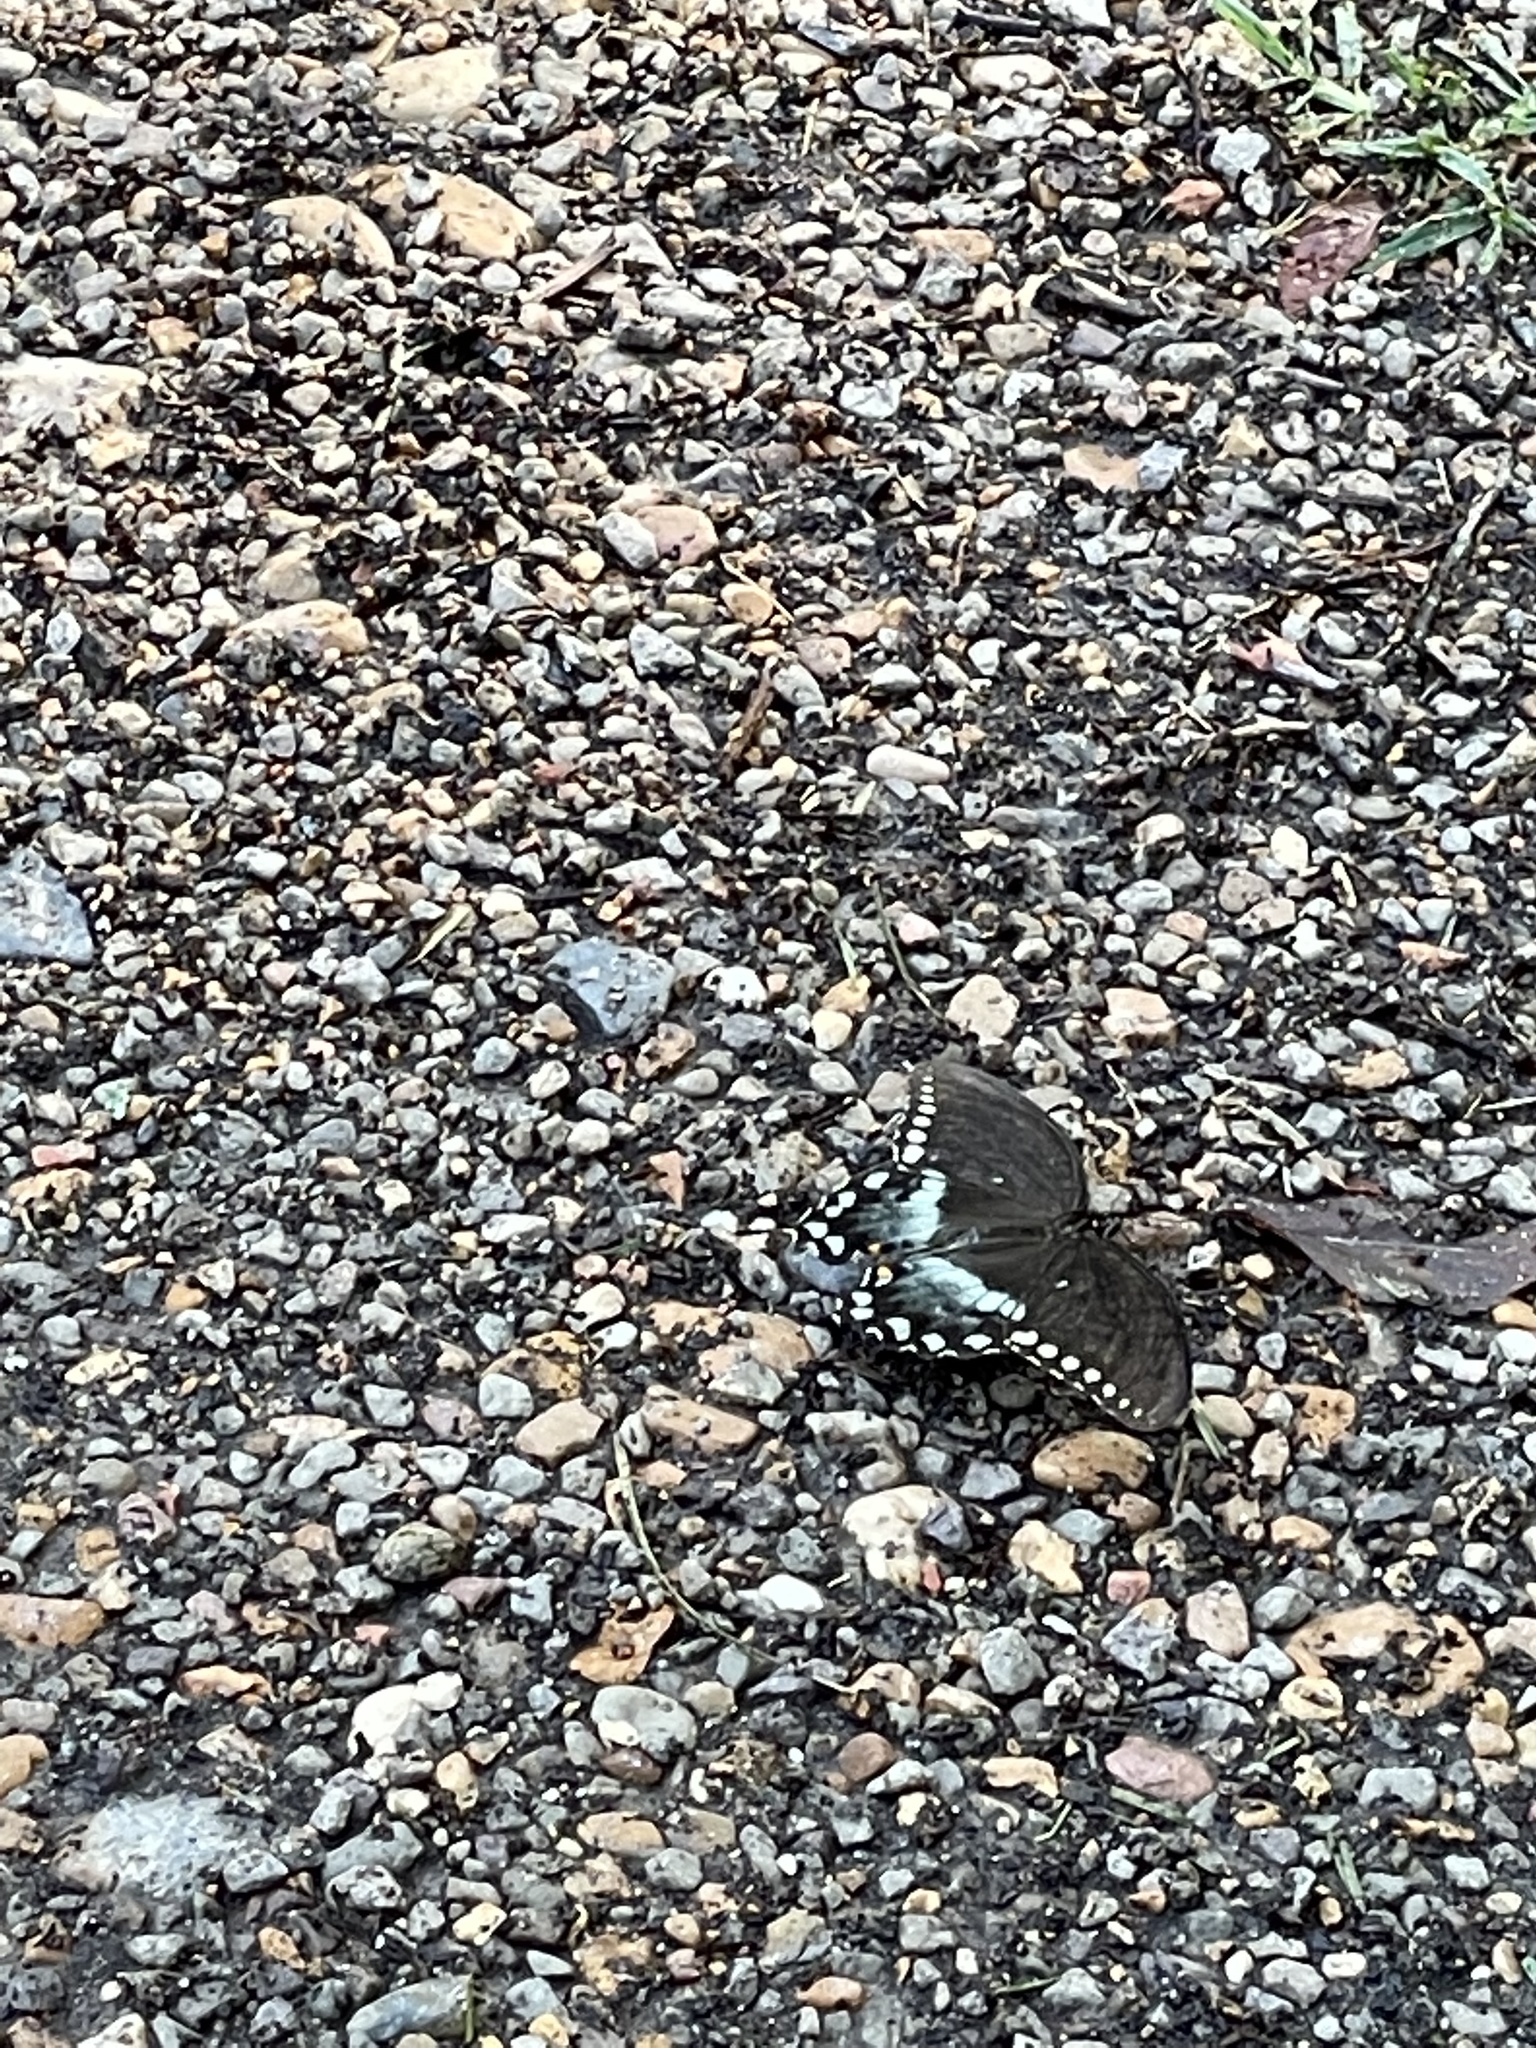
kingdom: Animalia
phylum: Arthropoda
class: Insecta
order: Lepidoptera
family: Papilionidae
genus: Papilio
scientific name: Papilio troilus
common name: Spicebush swallowtail
